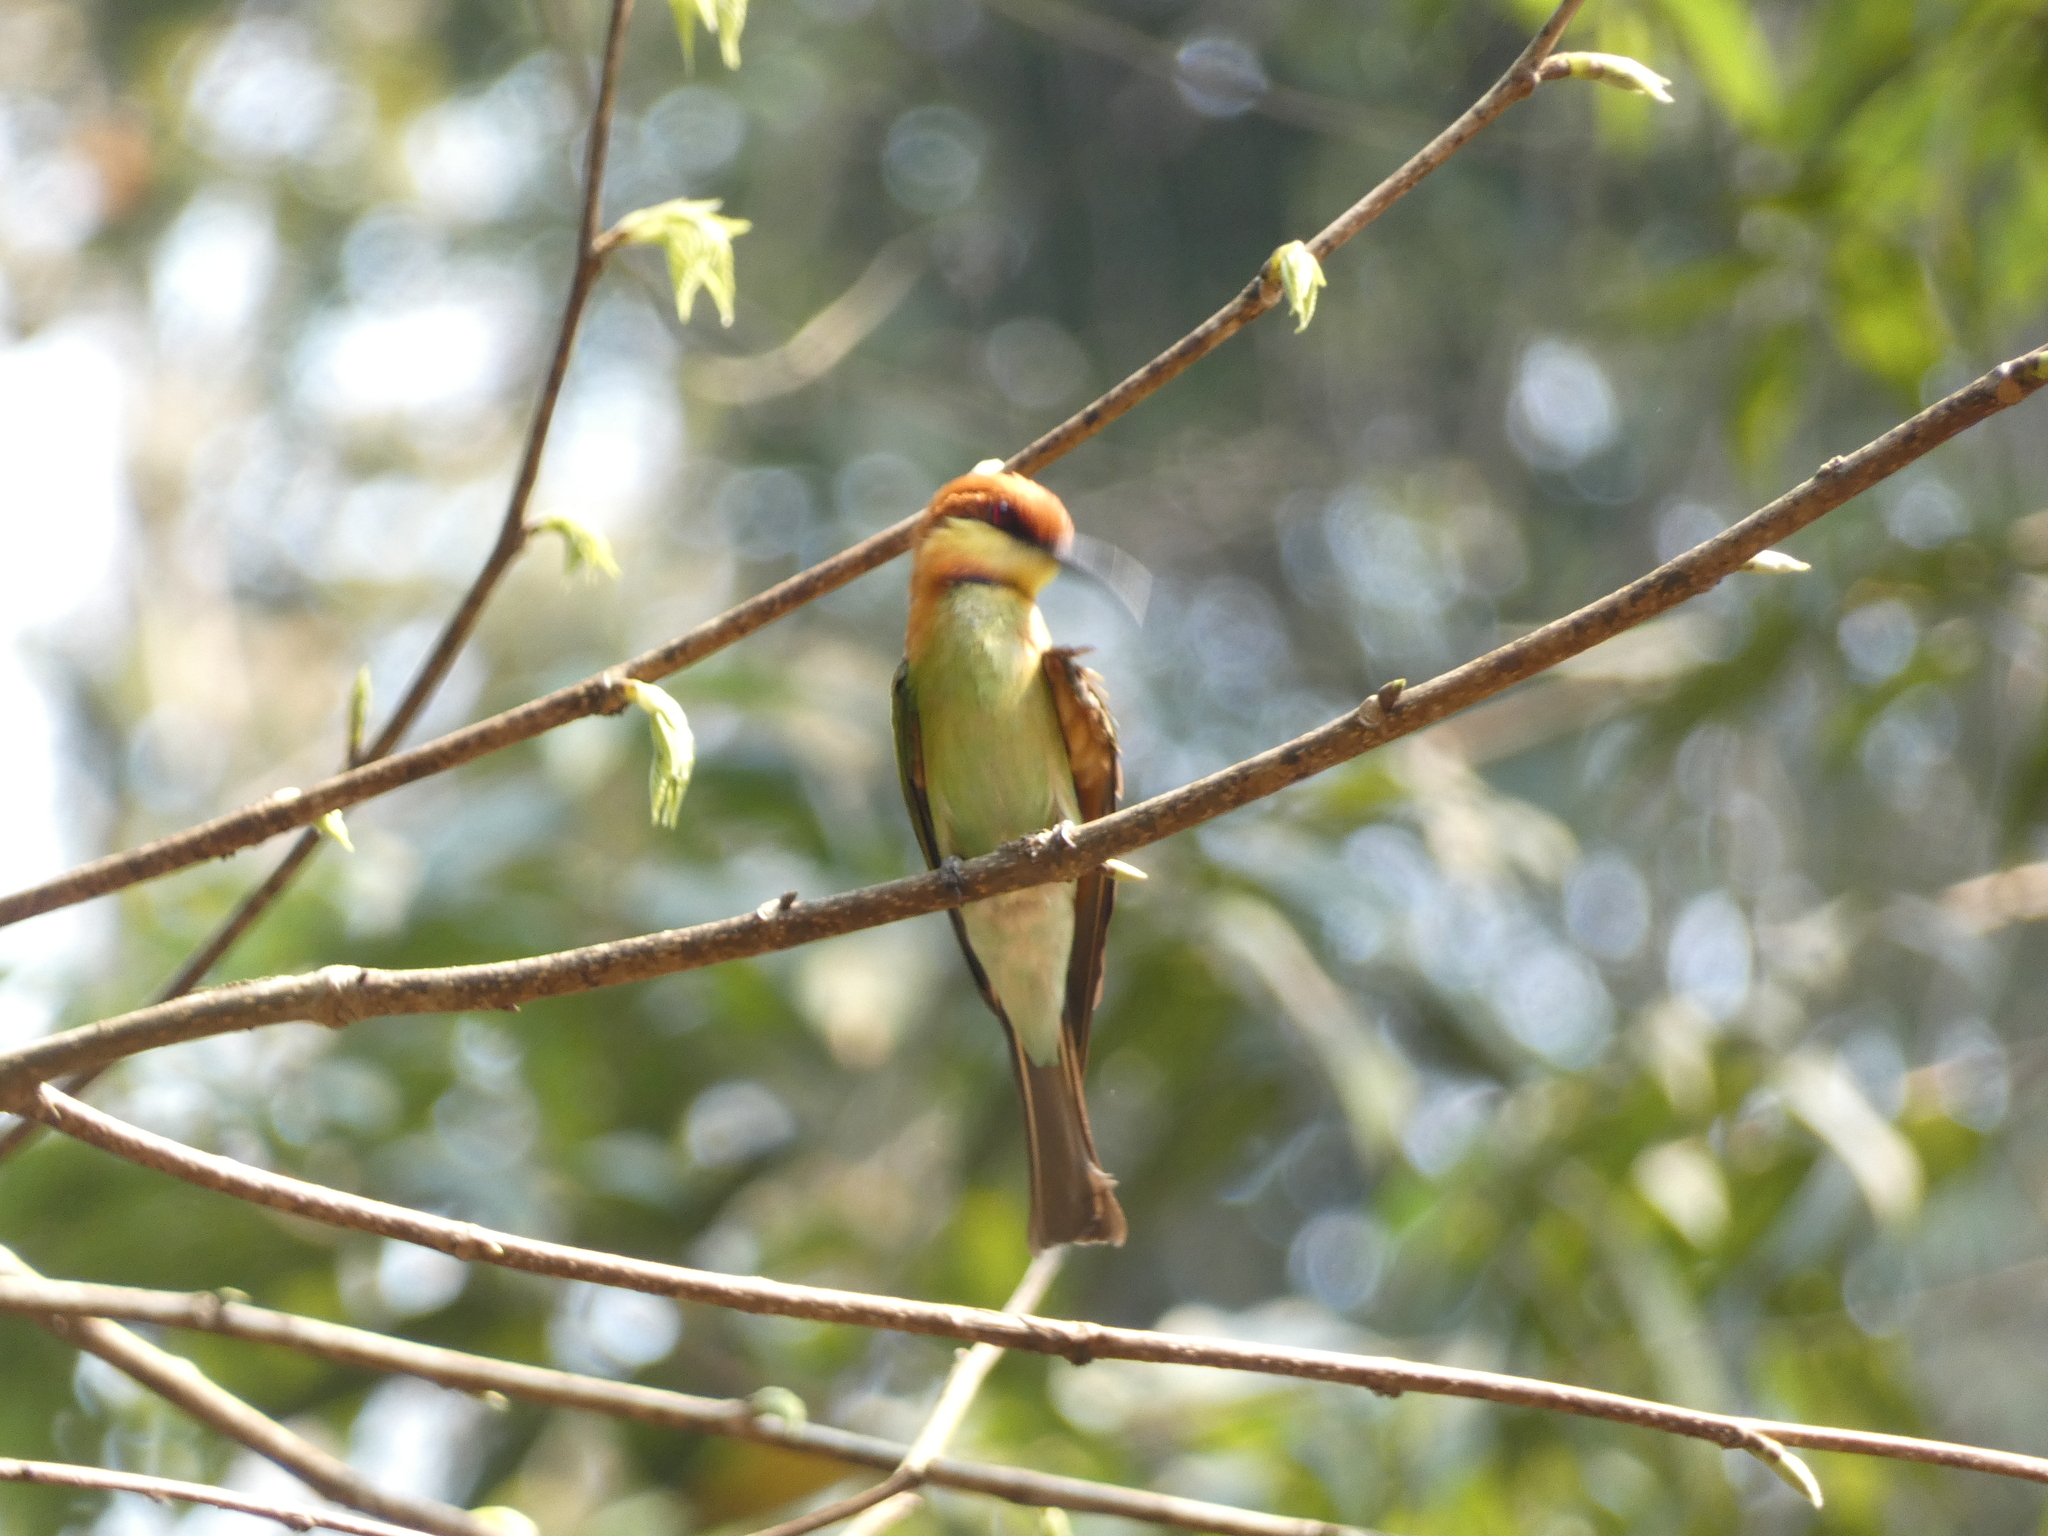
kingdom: Animalia
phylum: Chordata
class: Aves
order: Coraciiformes
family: Meropidae
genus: Merops
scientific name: Merops leschenaulti
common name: Chestnut-headed bee-eater
